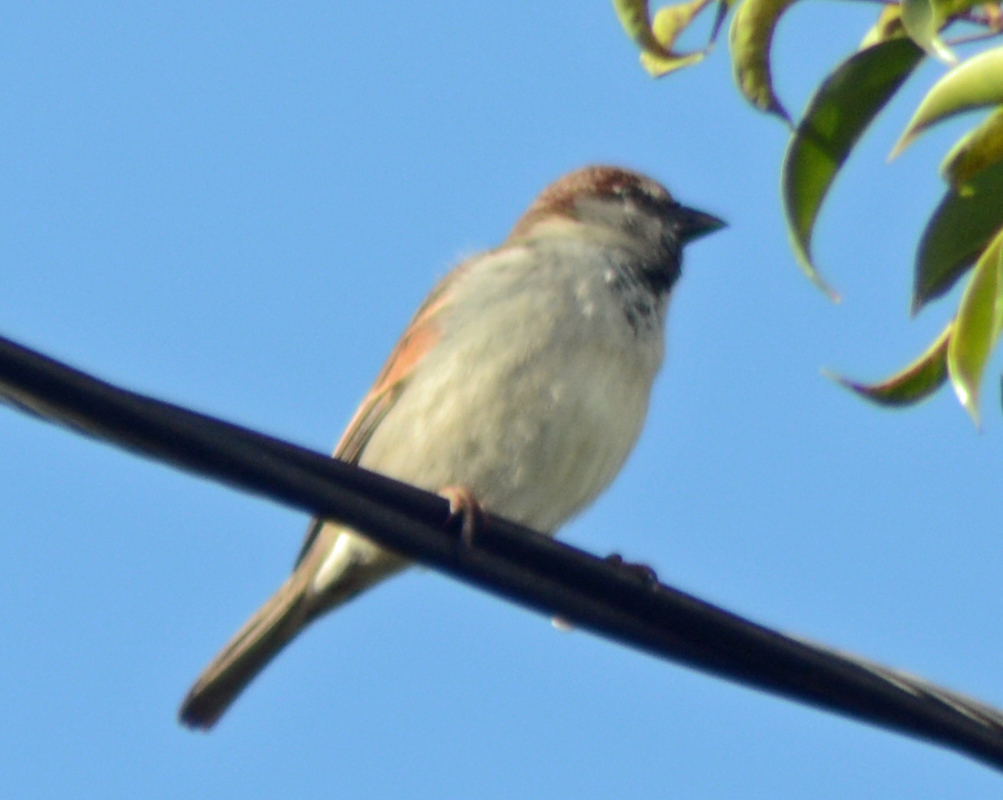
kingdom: Animalia
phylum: Chordata
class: Aves
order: Passeriformes
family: Passeridae
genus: Passer
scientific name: Passer domesticus
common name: House sparrow
